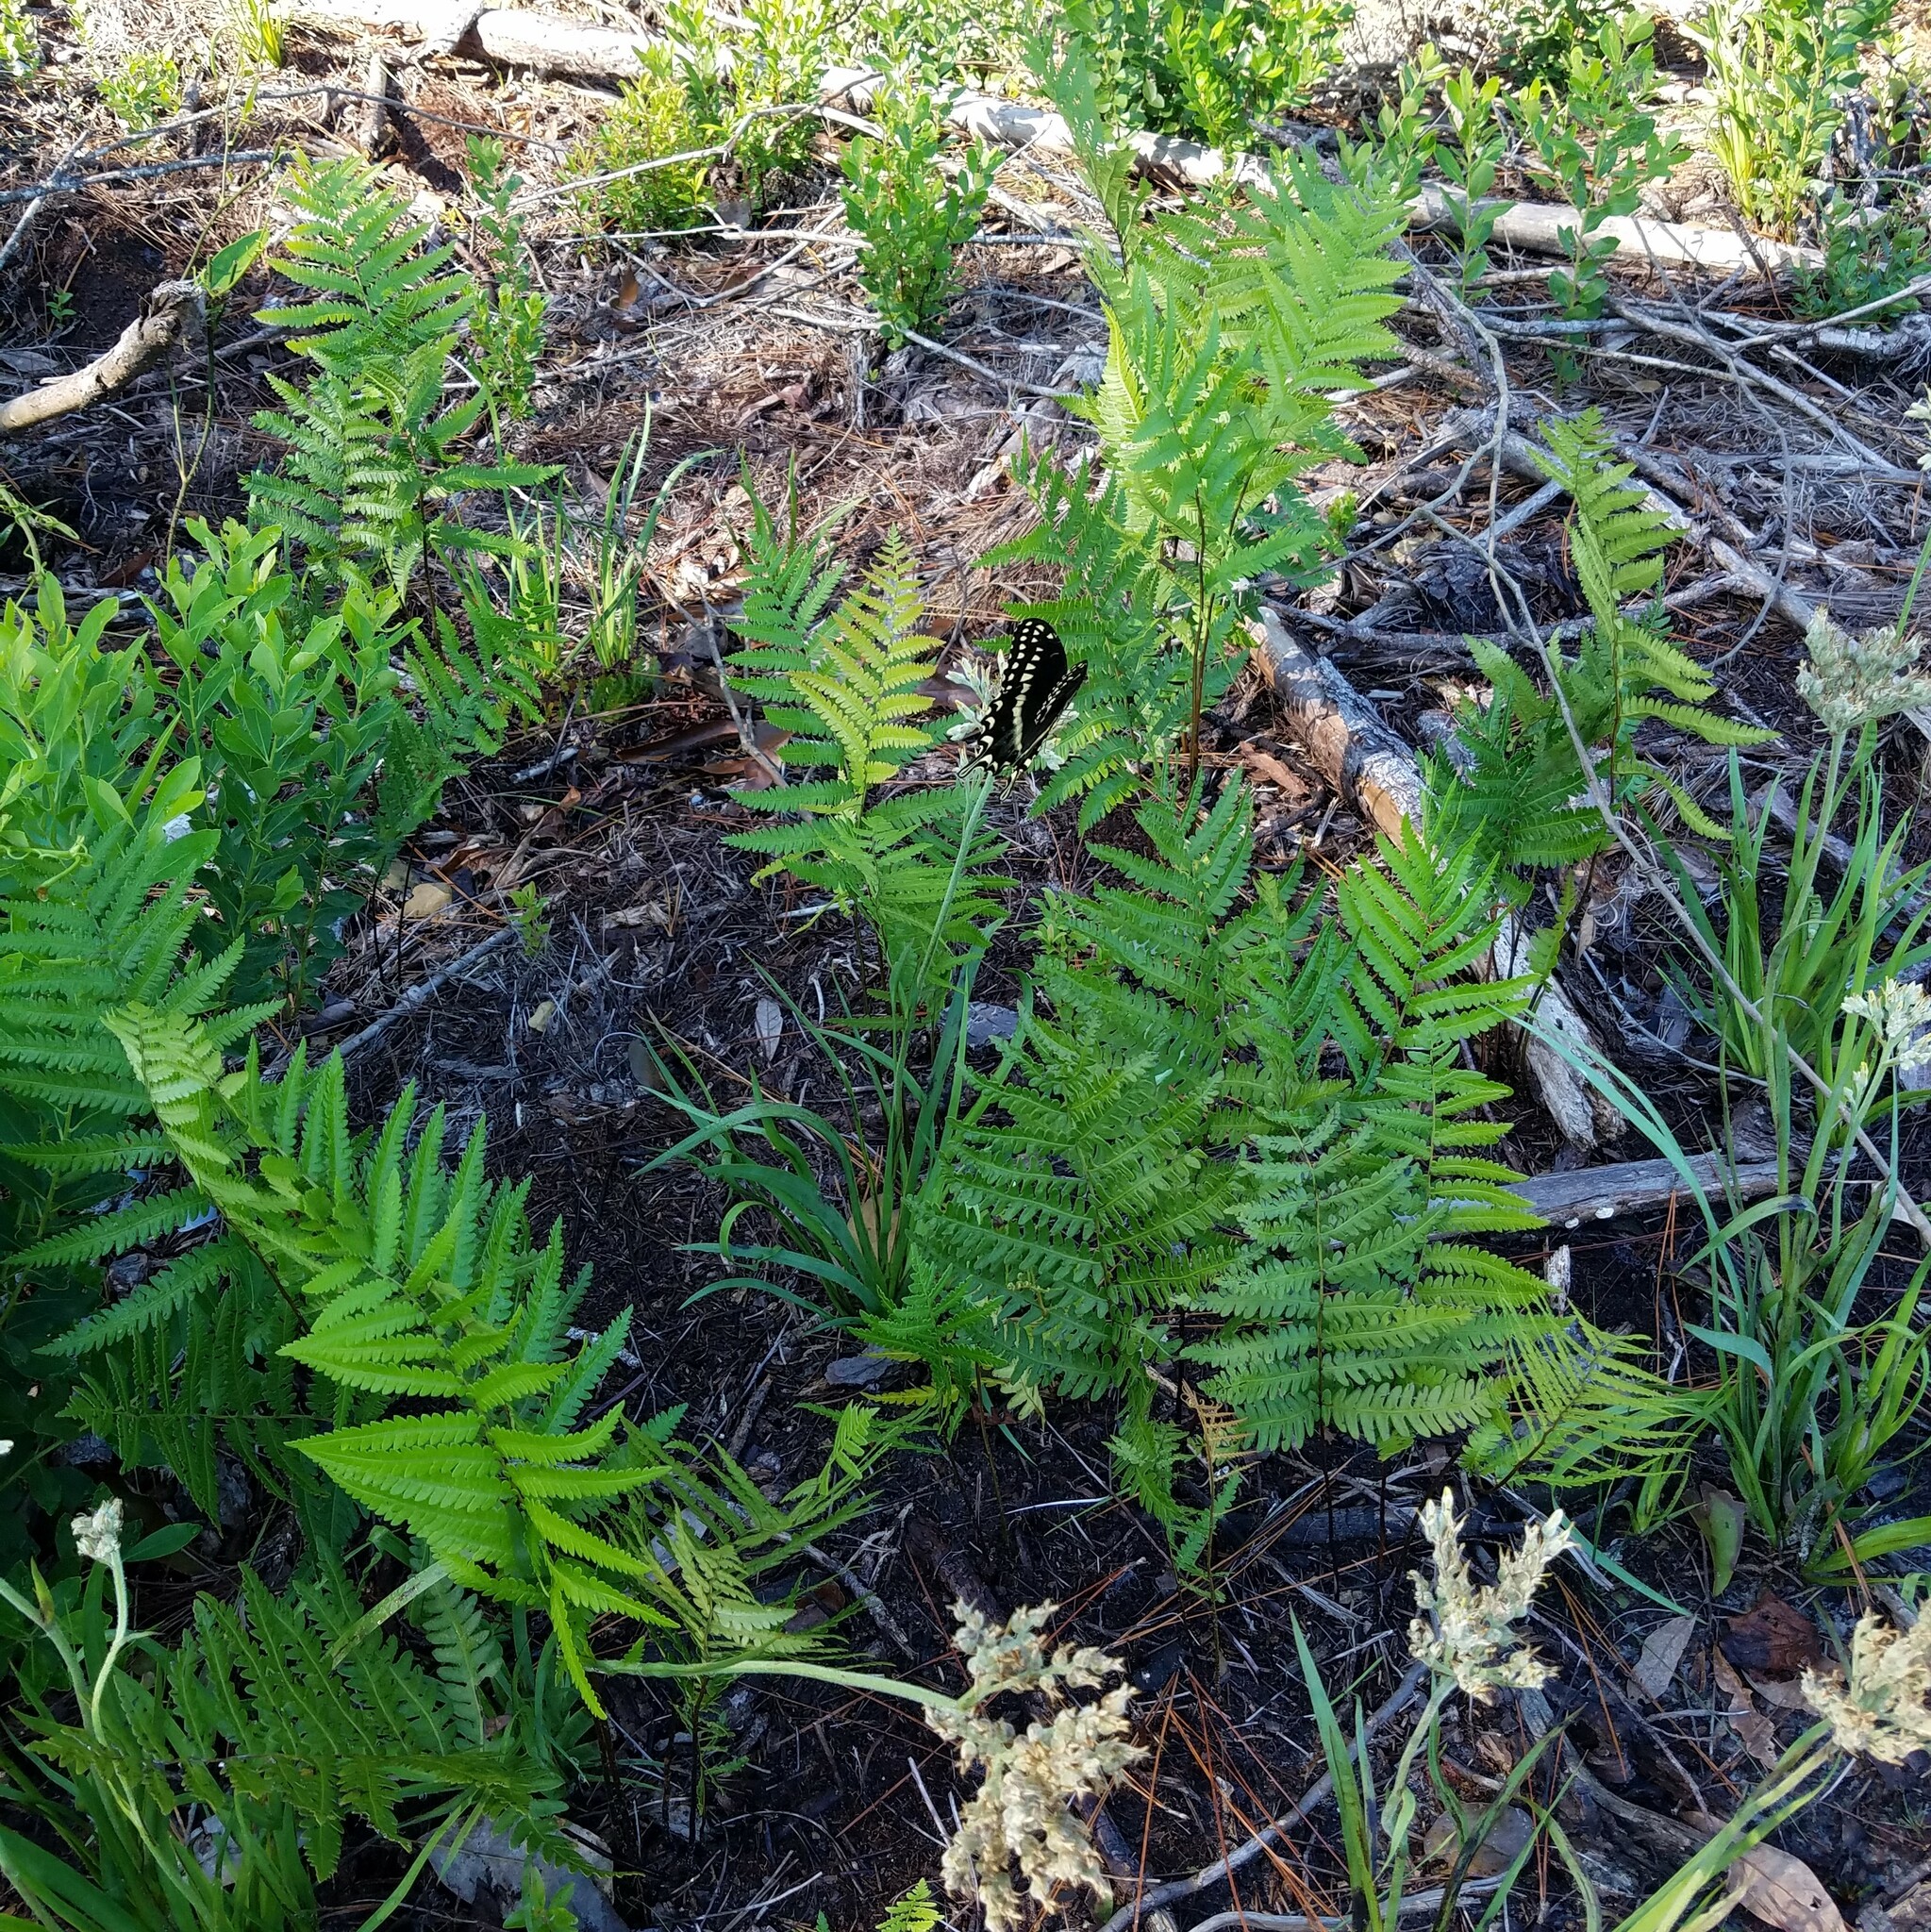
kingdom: Plantae
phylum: Tracheophyta
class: Polypodiopsida
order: Polypodiales
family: Blechnaceae
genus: Anchistea
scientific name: Anchistea virginica
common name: Virginia chain fern
